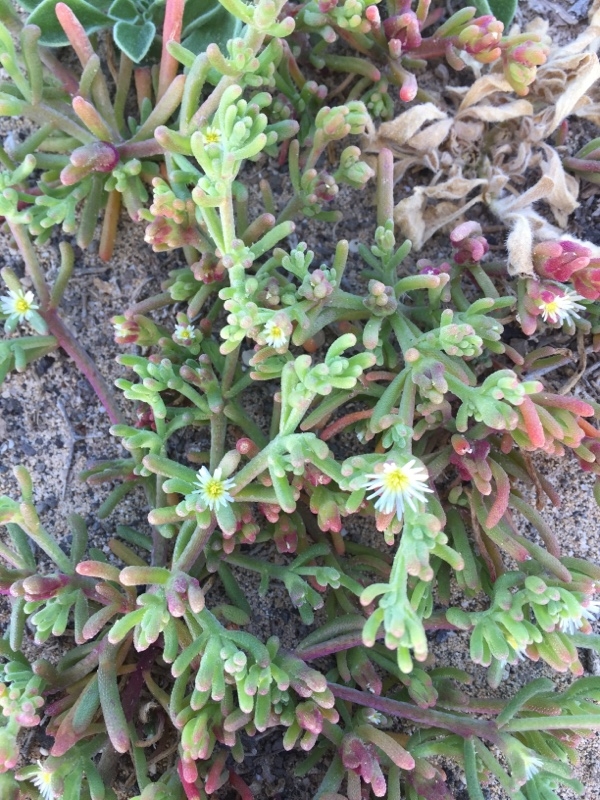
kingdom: Plantae
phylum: Tracheophyta
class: Magnoliopsida
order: Caryophyllales
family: Aizoaceae
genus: Mesembryanthemum
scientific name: Mesembryanthemum nodiflorum
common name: Slenderleaf iceplant
